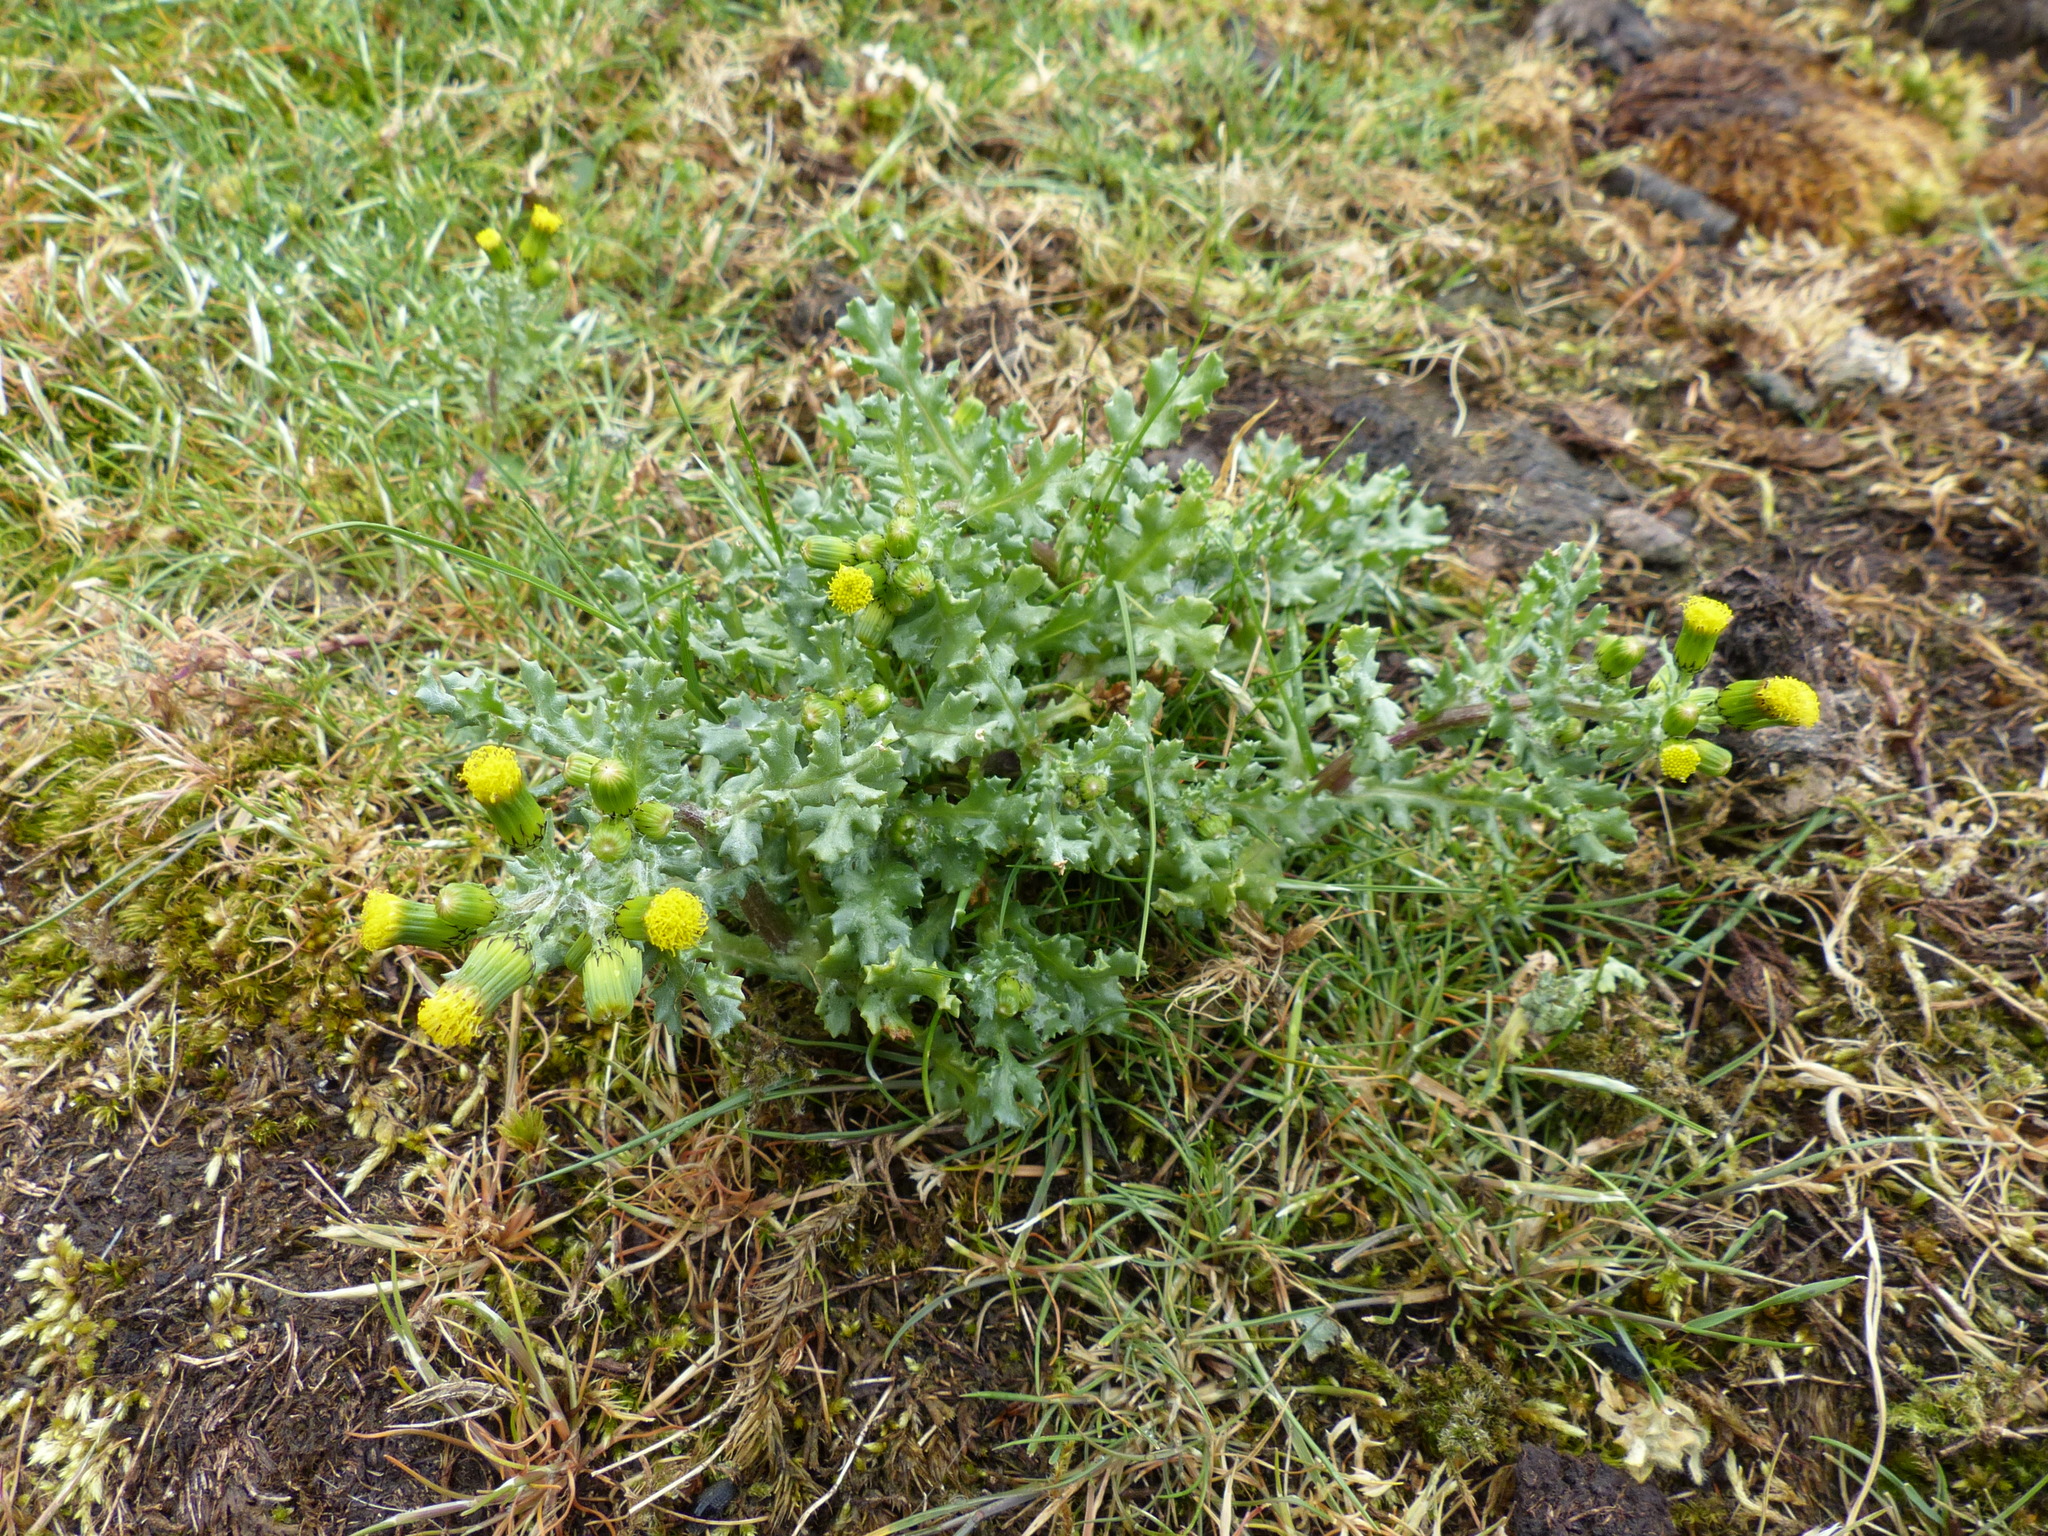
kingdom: Plantae
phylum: Tracheophyta
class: Magnoliopsida
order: Asterales
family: Asteraceae
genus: Senecio
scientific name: Senecio vulgaris
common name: Old-man-in-the-spring
